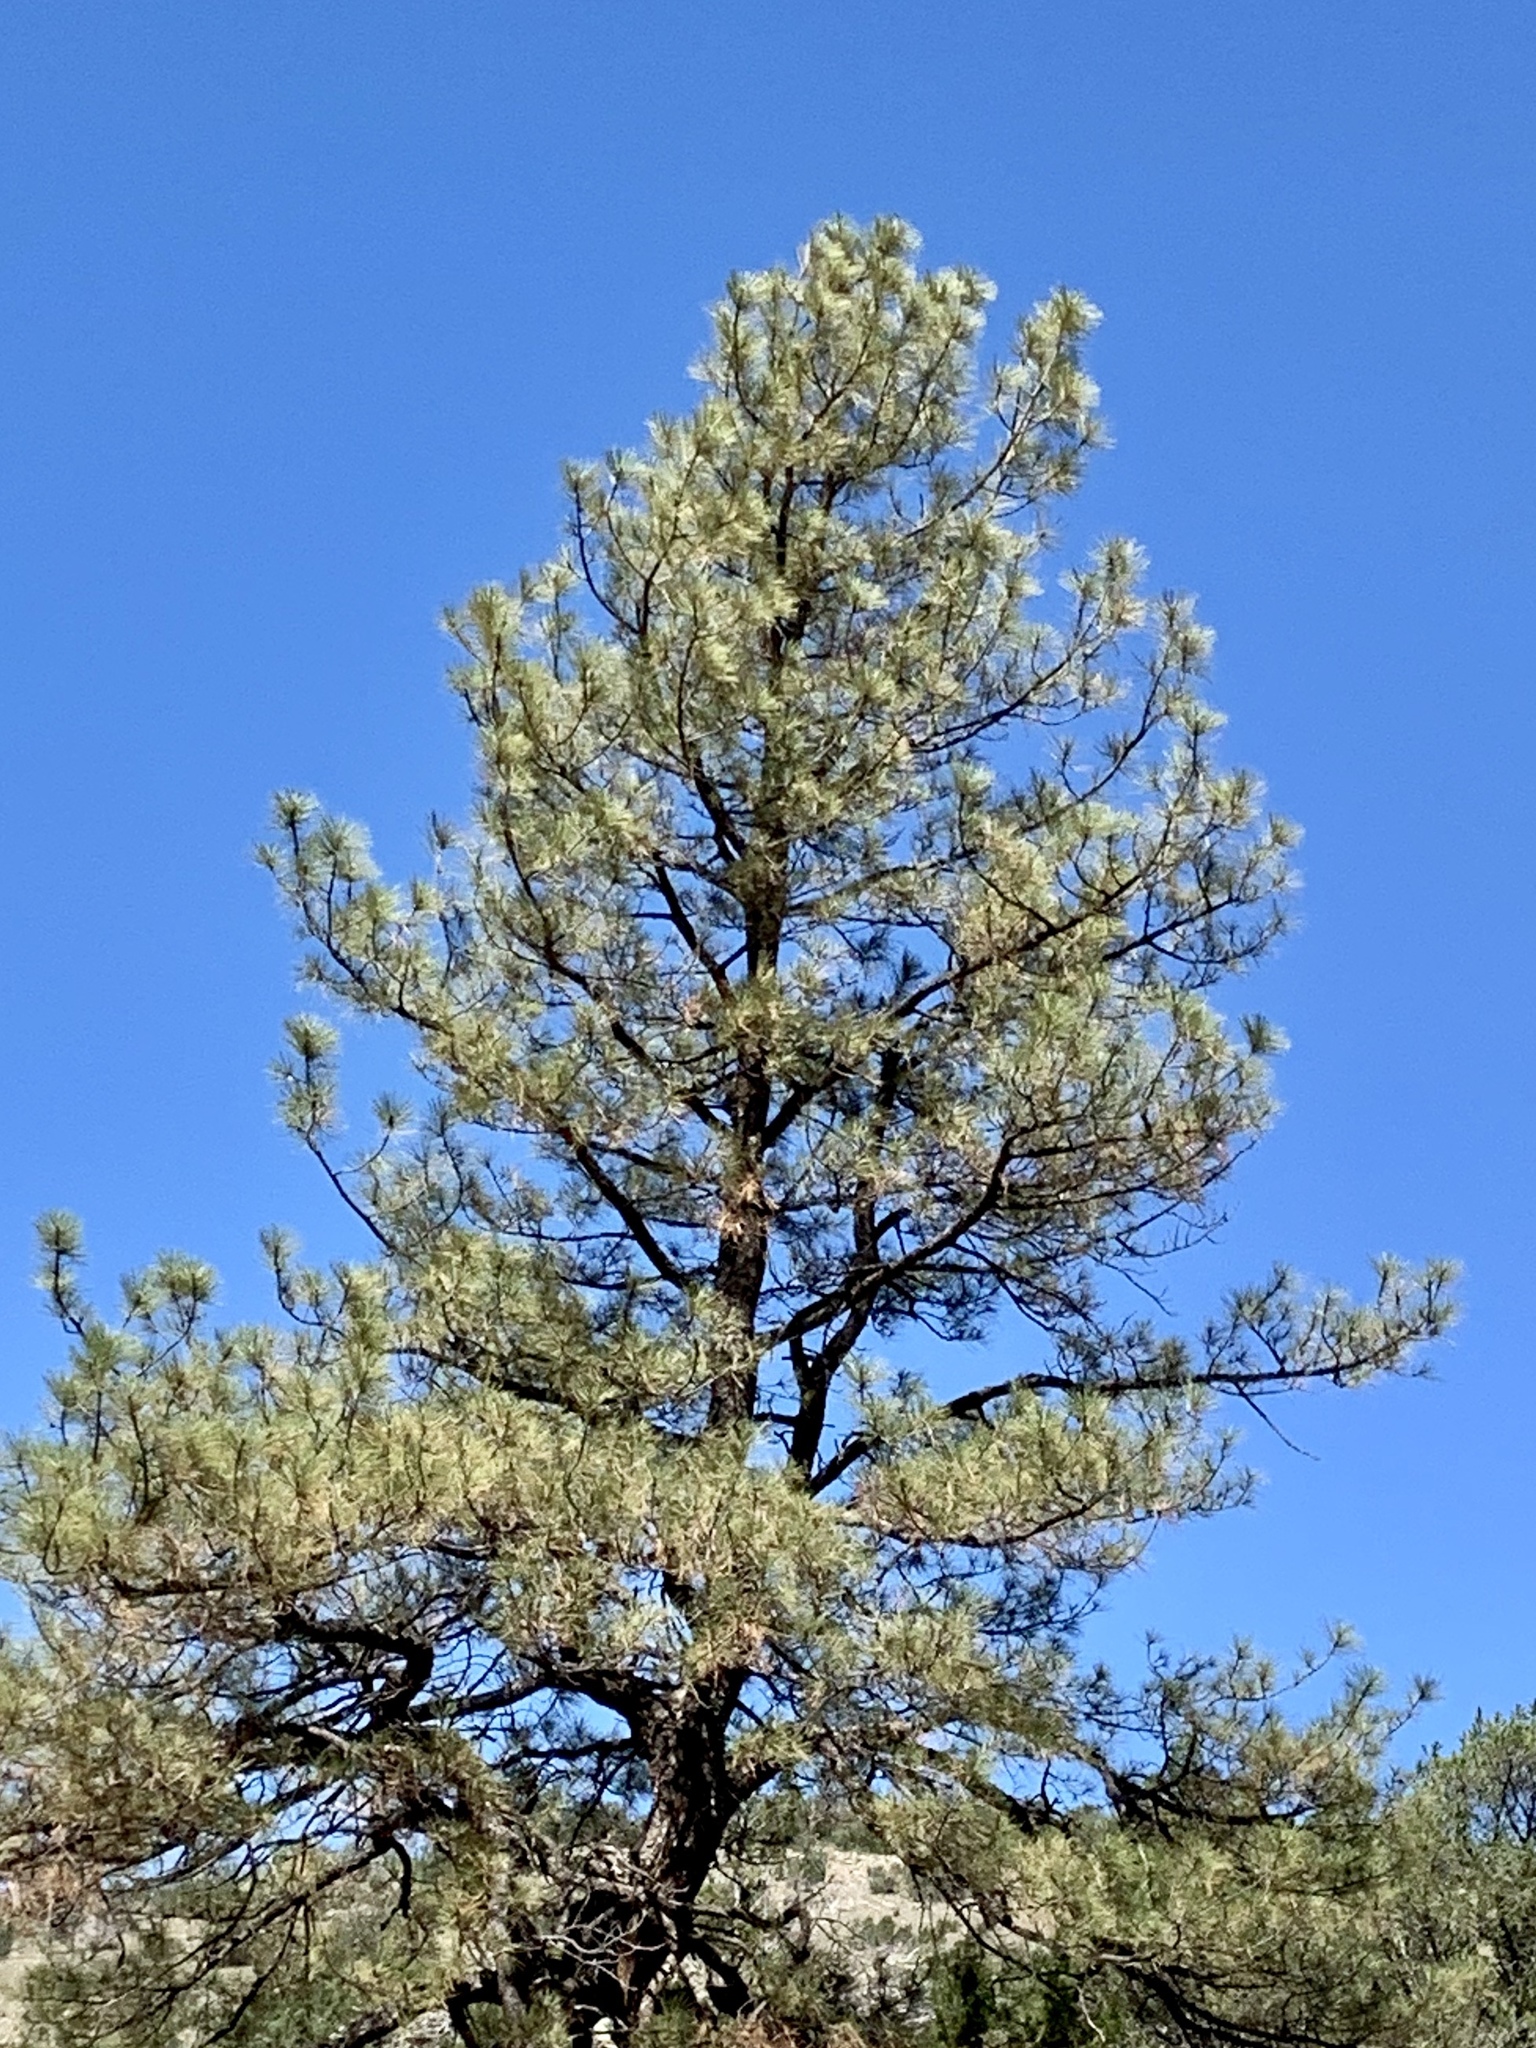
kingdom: Plantae
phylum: Tracheophyta
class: Pinopsida
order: Pinales
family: Pinaceae
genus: Pinus
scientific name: Pinus ponderosa
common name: Western yellow-pine
